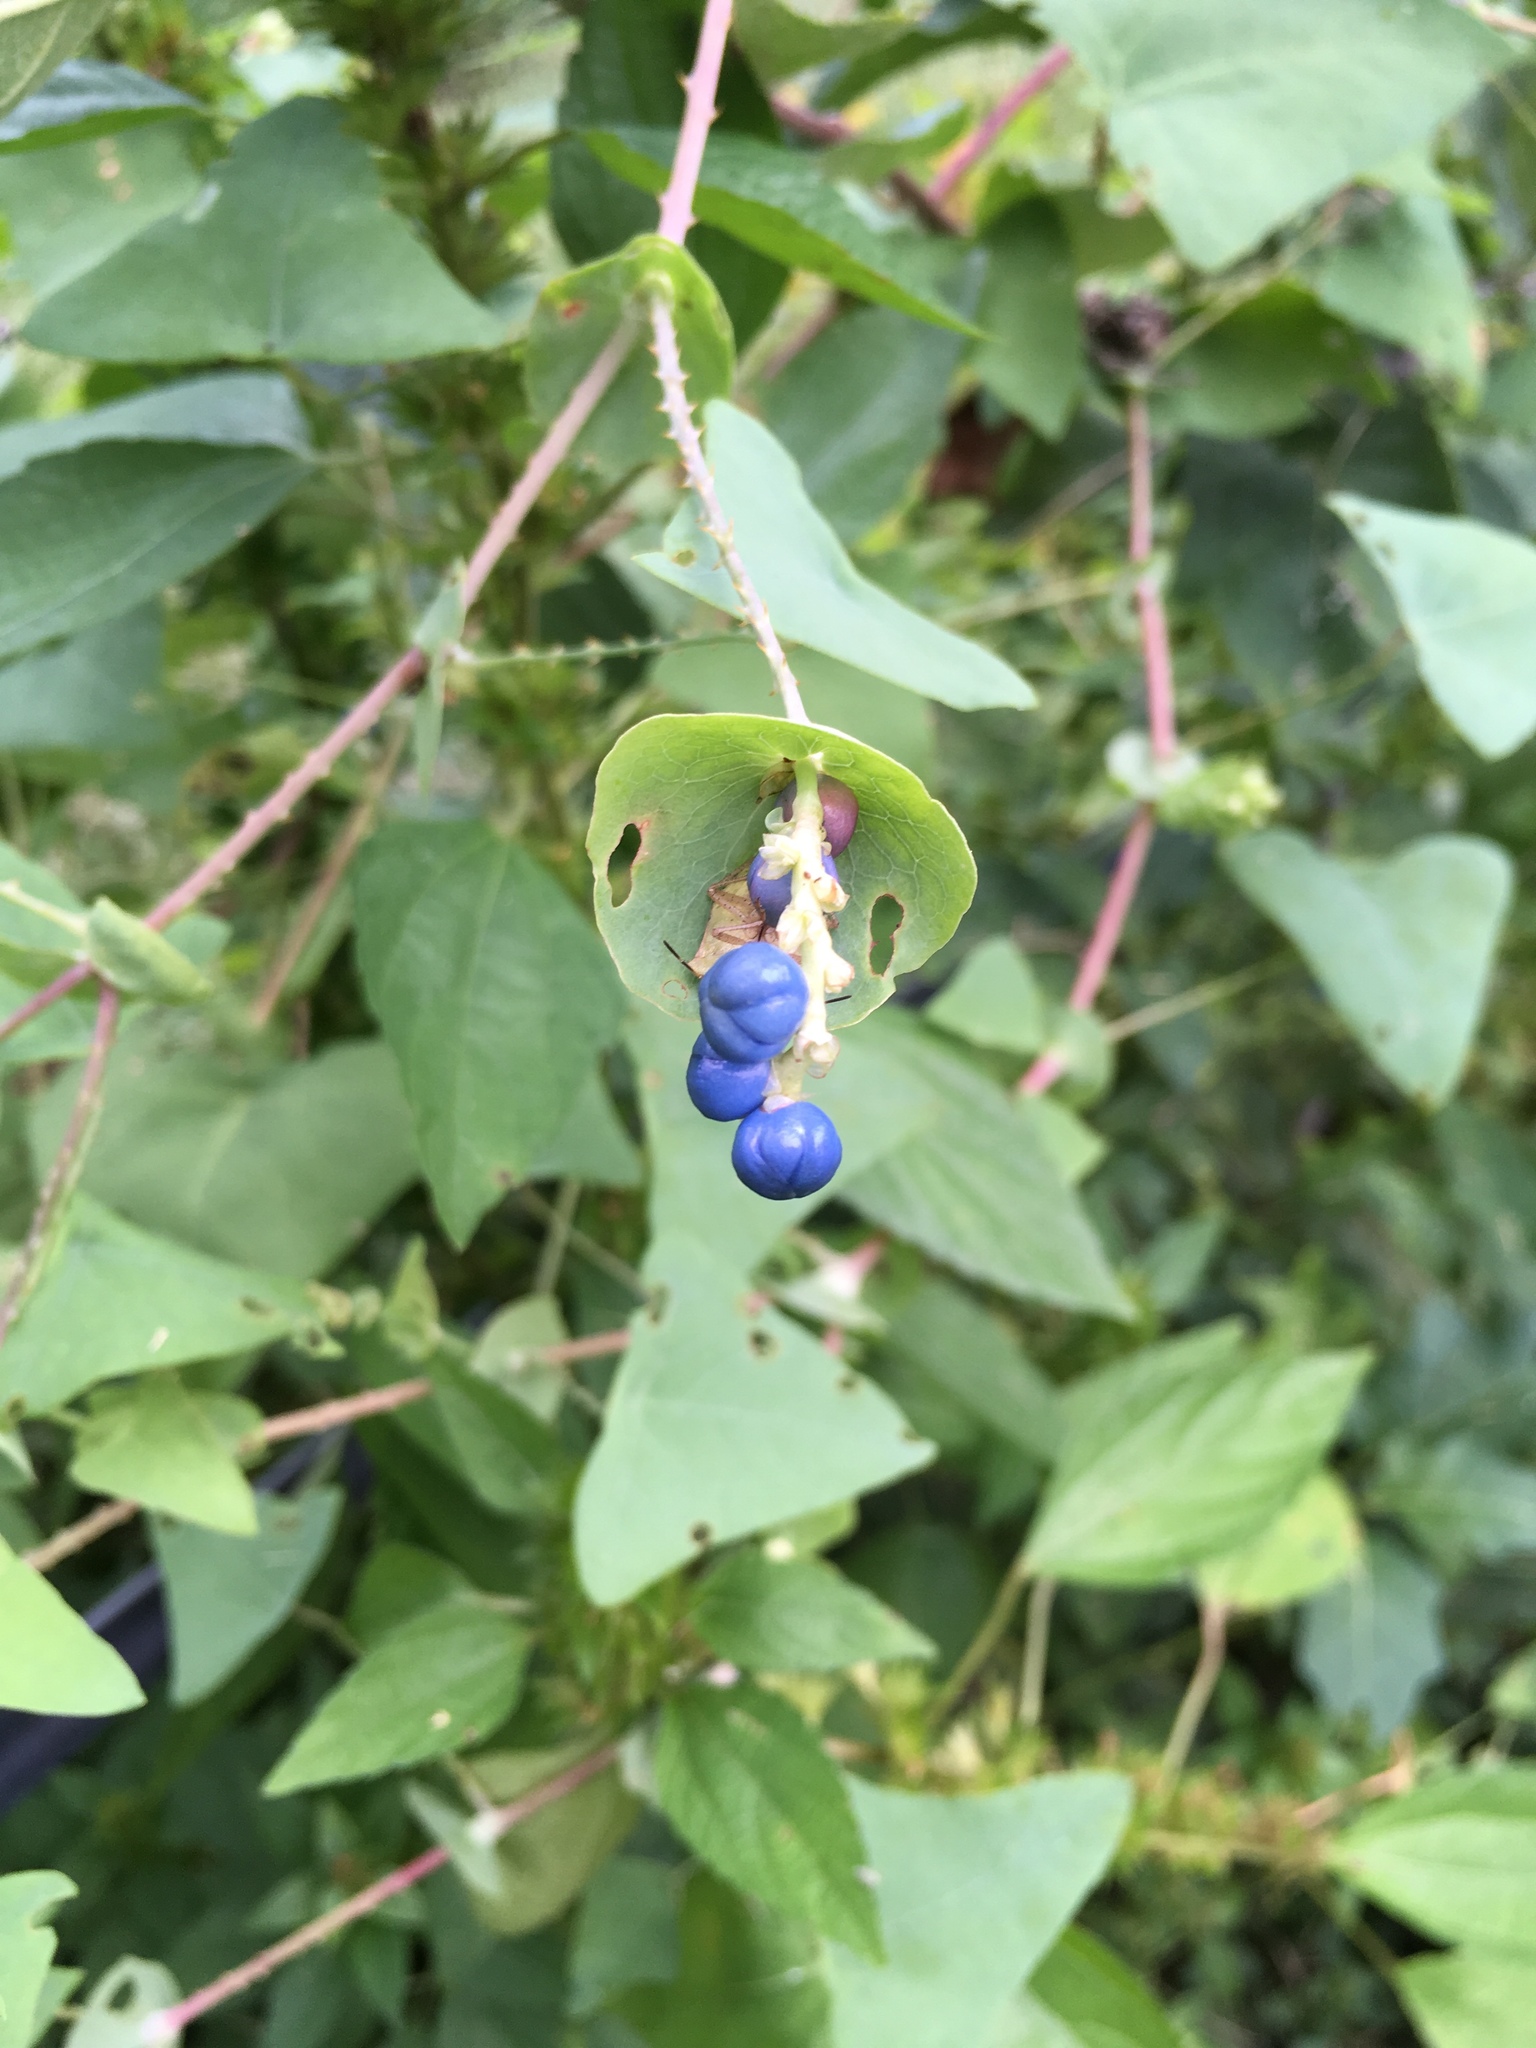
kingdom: Plantae
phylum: Tracheophyta
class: Magnoliopsida
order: Caryophyllales
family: Polygonaceae
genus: Persicaria
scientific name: Persicaria perfoliata
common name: Asiatic tearthumb
